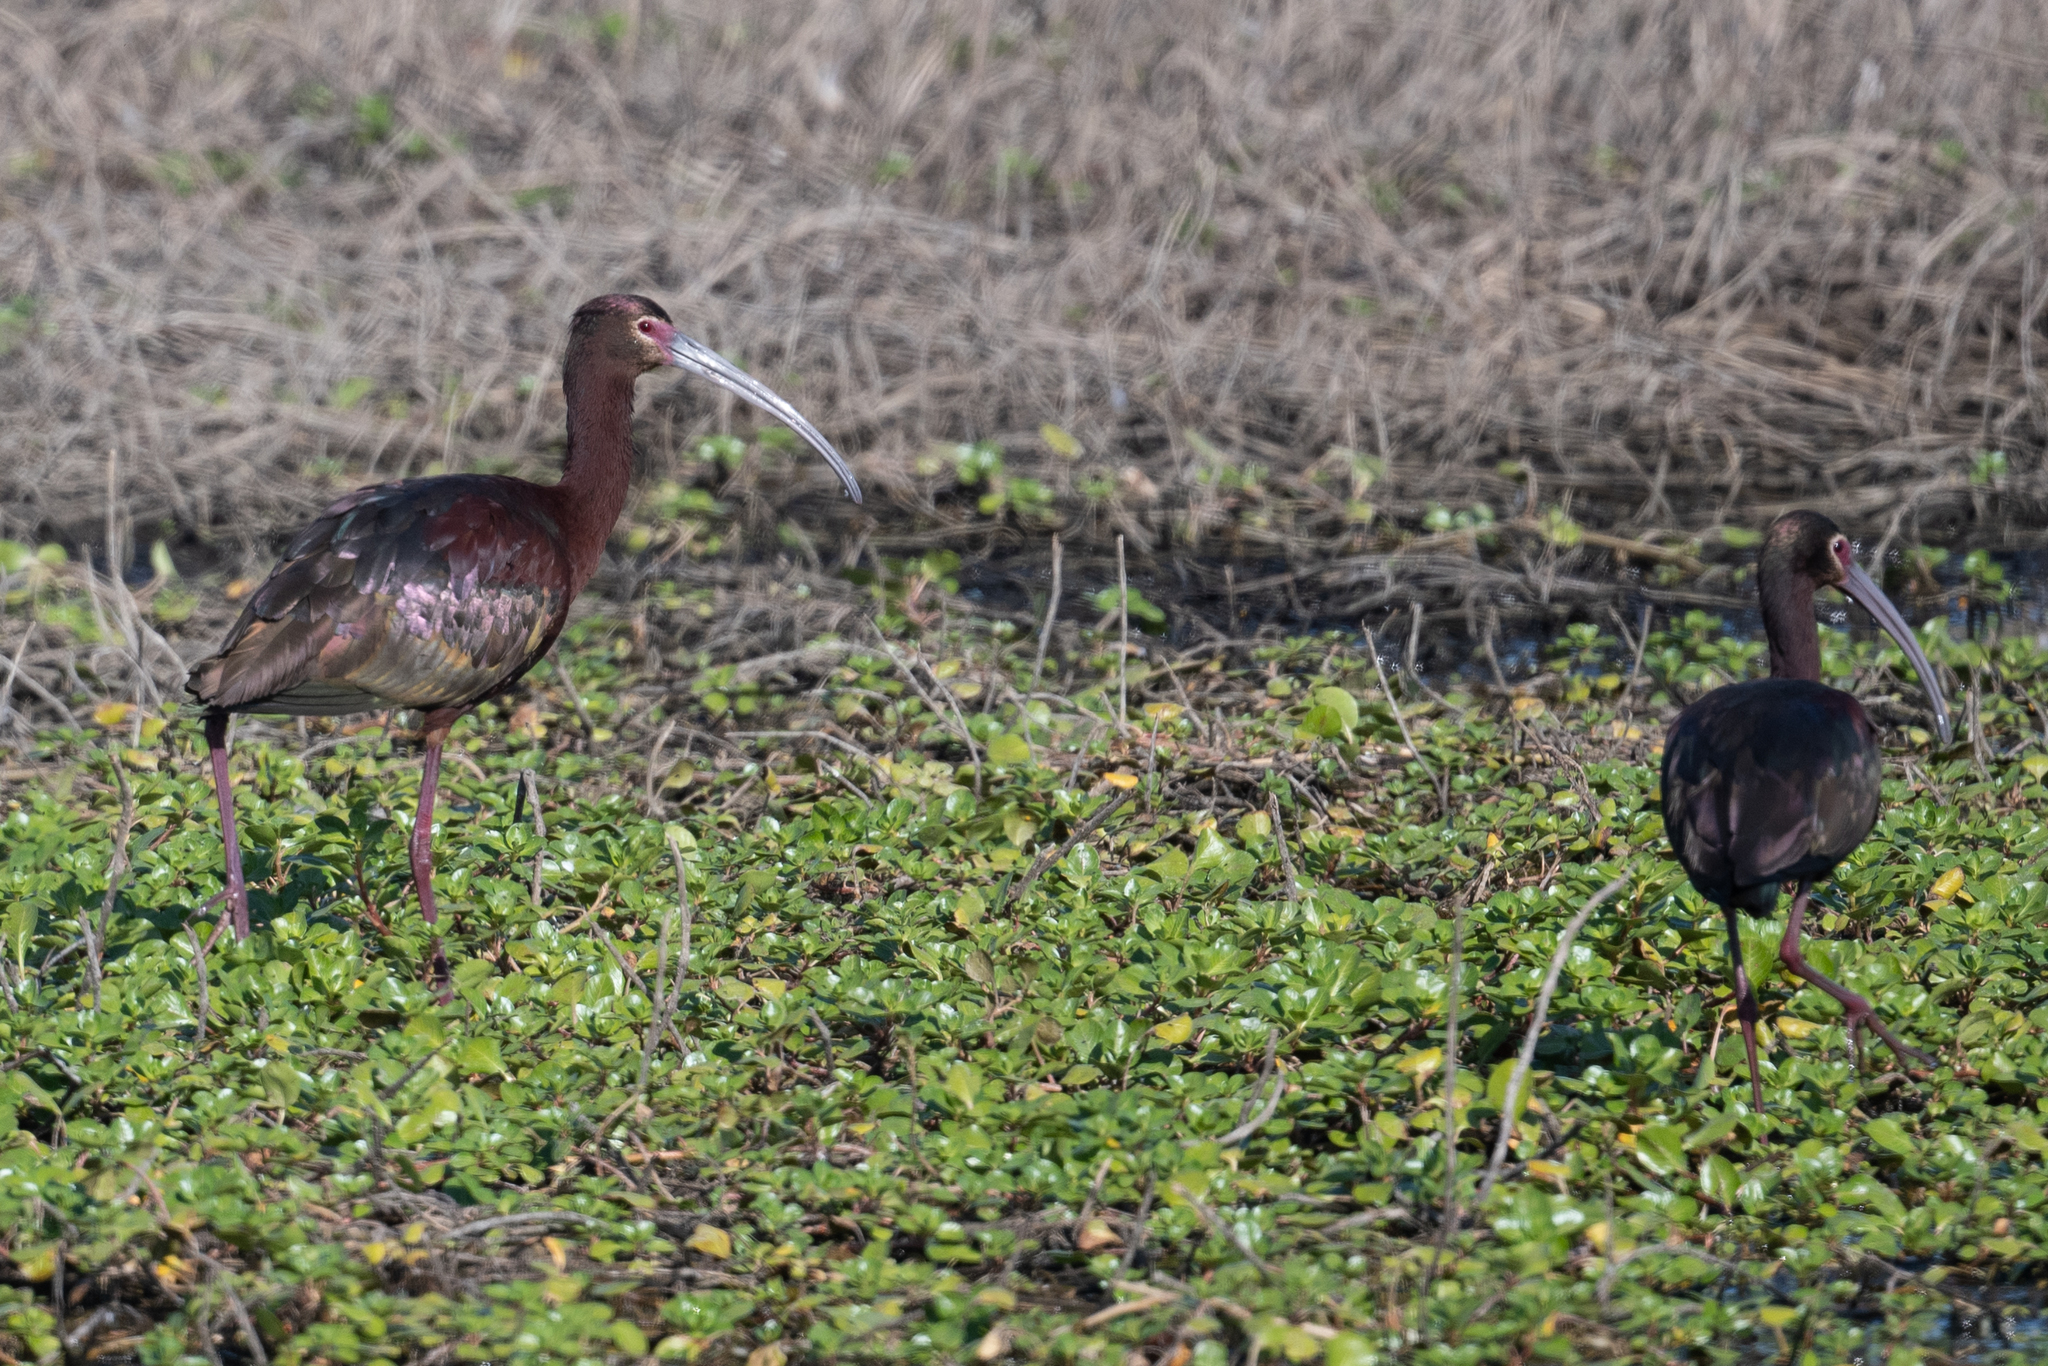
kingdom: Animalia
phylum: Chordata
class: Aves
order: Pelecaniformes
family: Threskiornithidae
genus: Plegadis
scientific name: Plegadis chihi
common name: White-faced ibis
